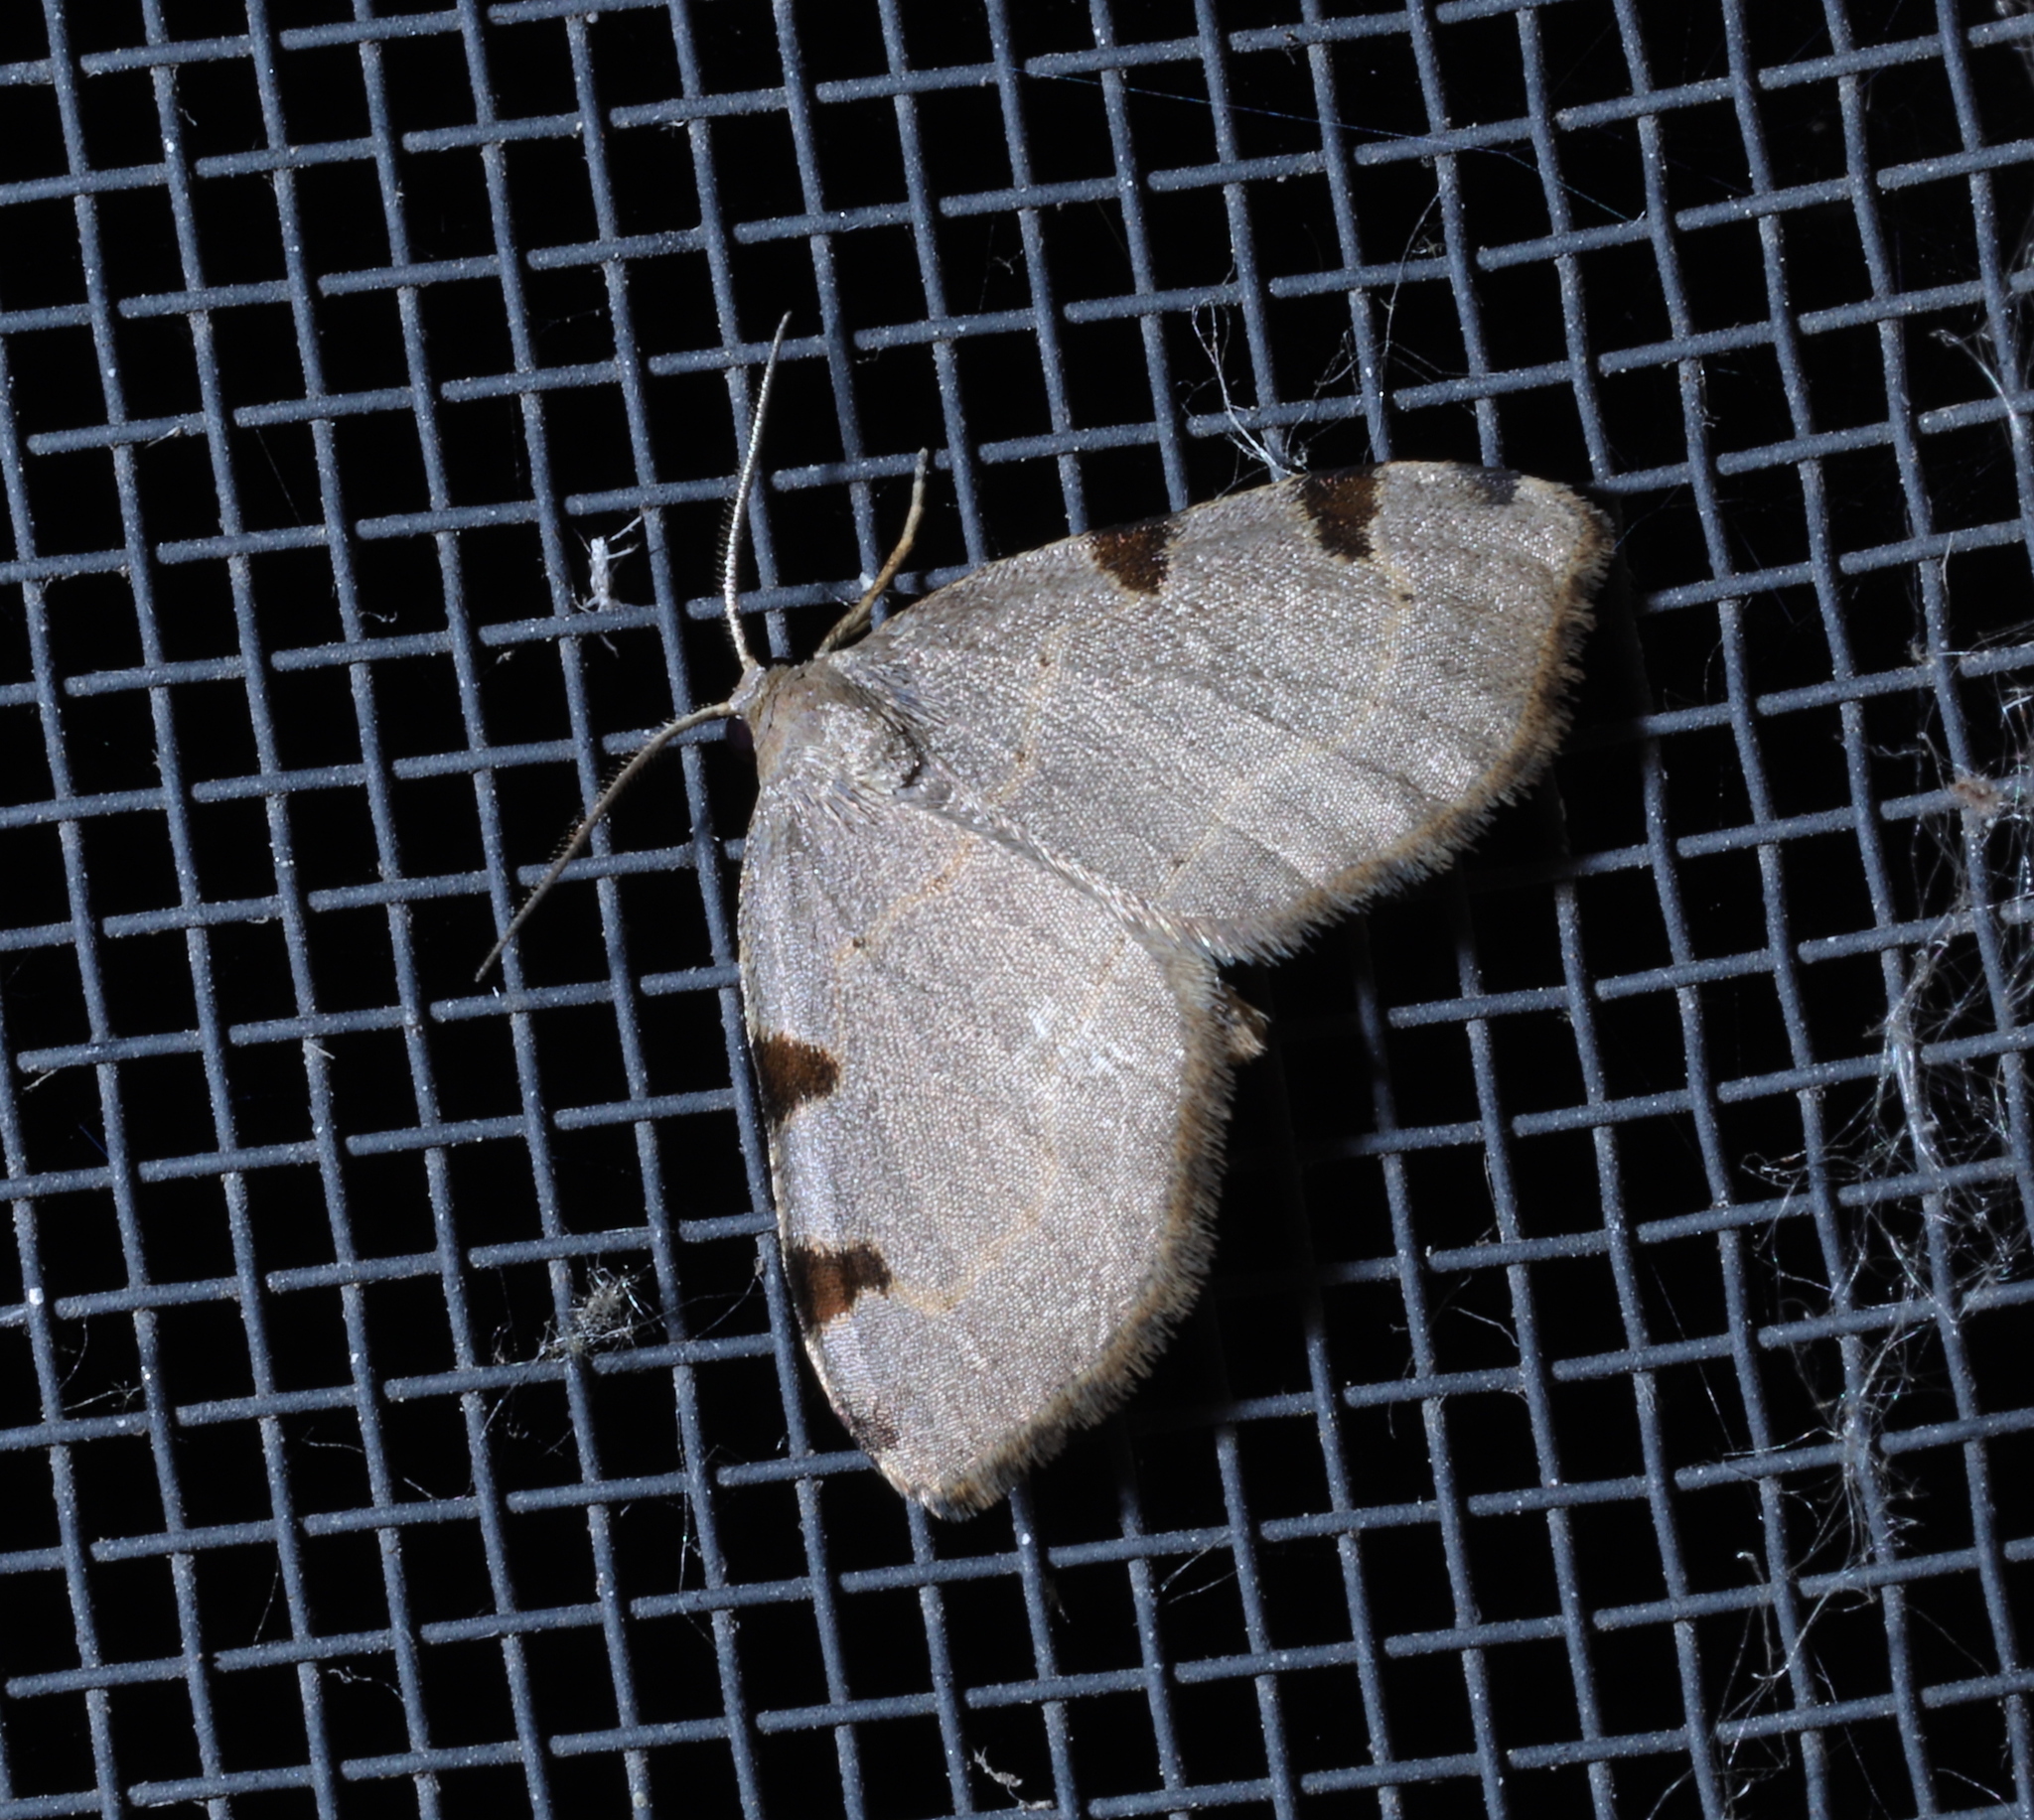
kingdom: Animalia
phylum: Arthropoda
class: Insecta
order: Lepidoptera
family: Geometridae
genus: Heterophleps
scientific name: Heterophleps triguttaria
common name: Three-spotted fillip
